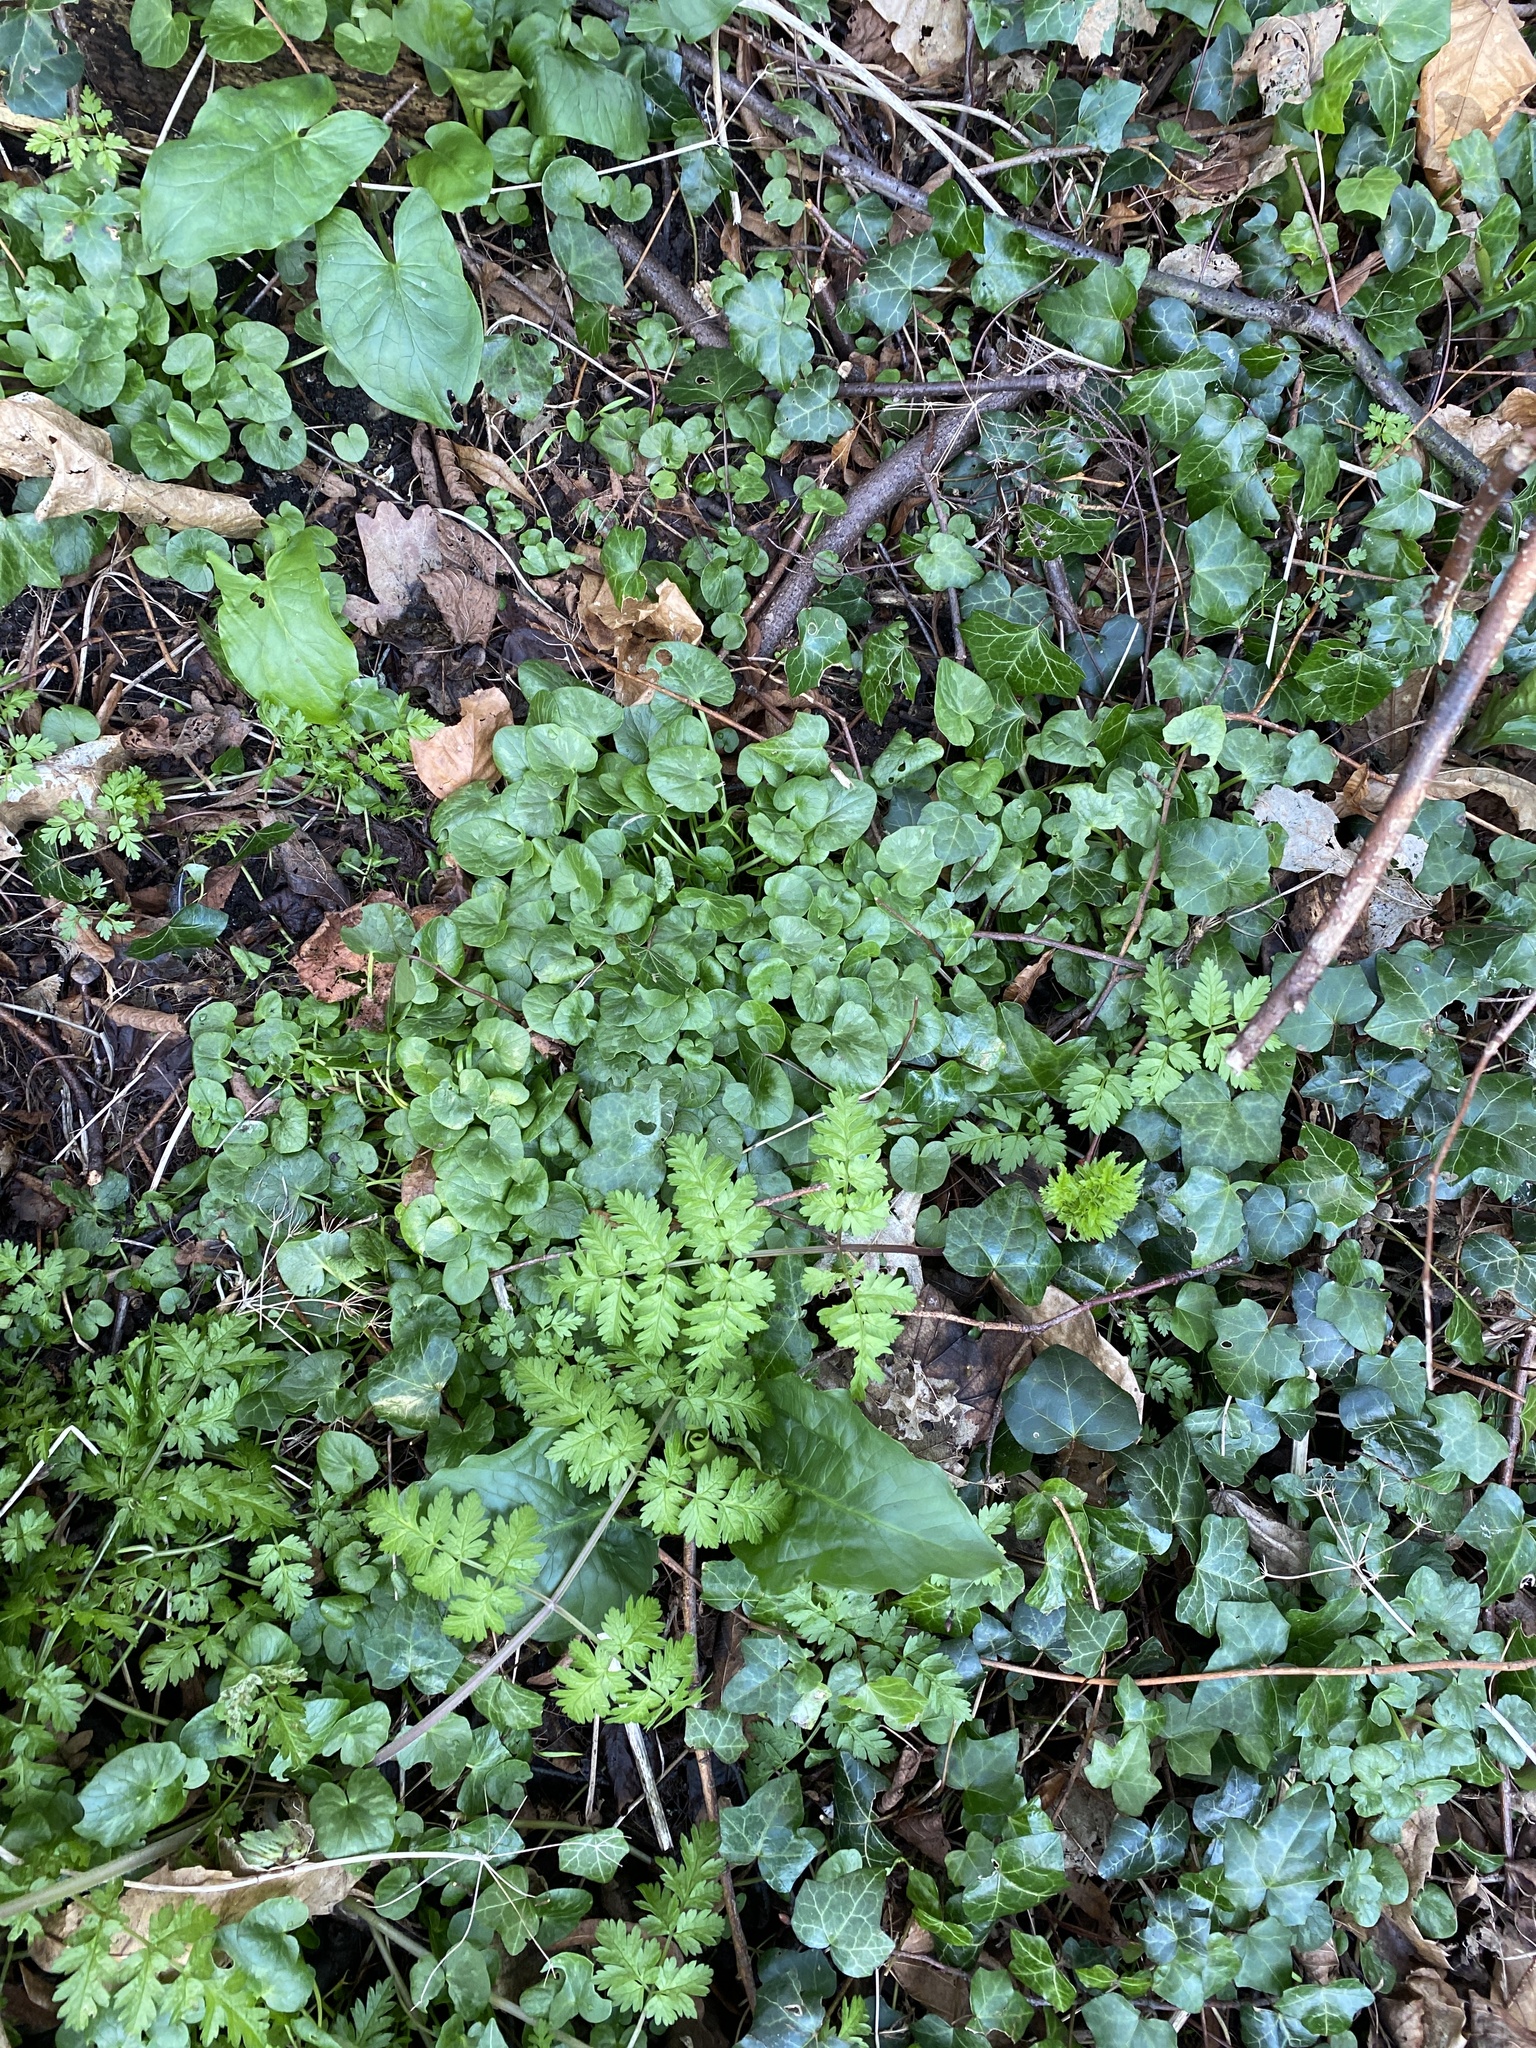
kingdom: Plantae
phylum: Tracheophyta
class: Magnoliopsida
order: Ranunculales
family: Ranunculaceae
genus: Ficaria
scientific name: Ficaria verna
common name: Lesser celandine
